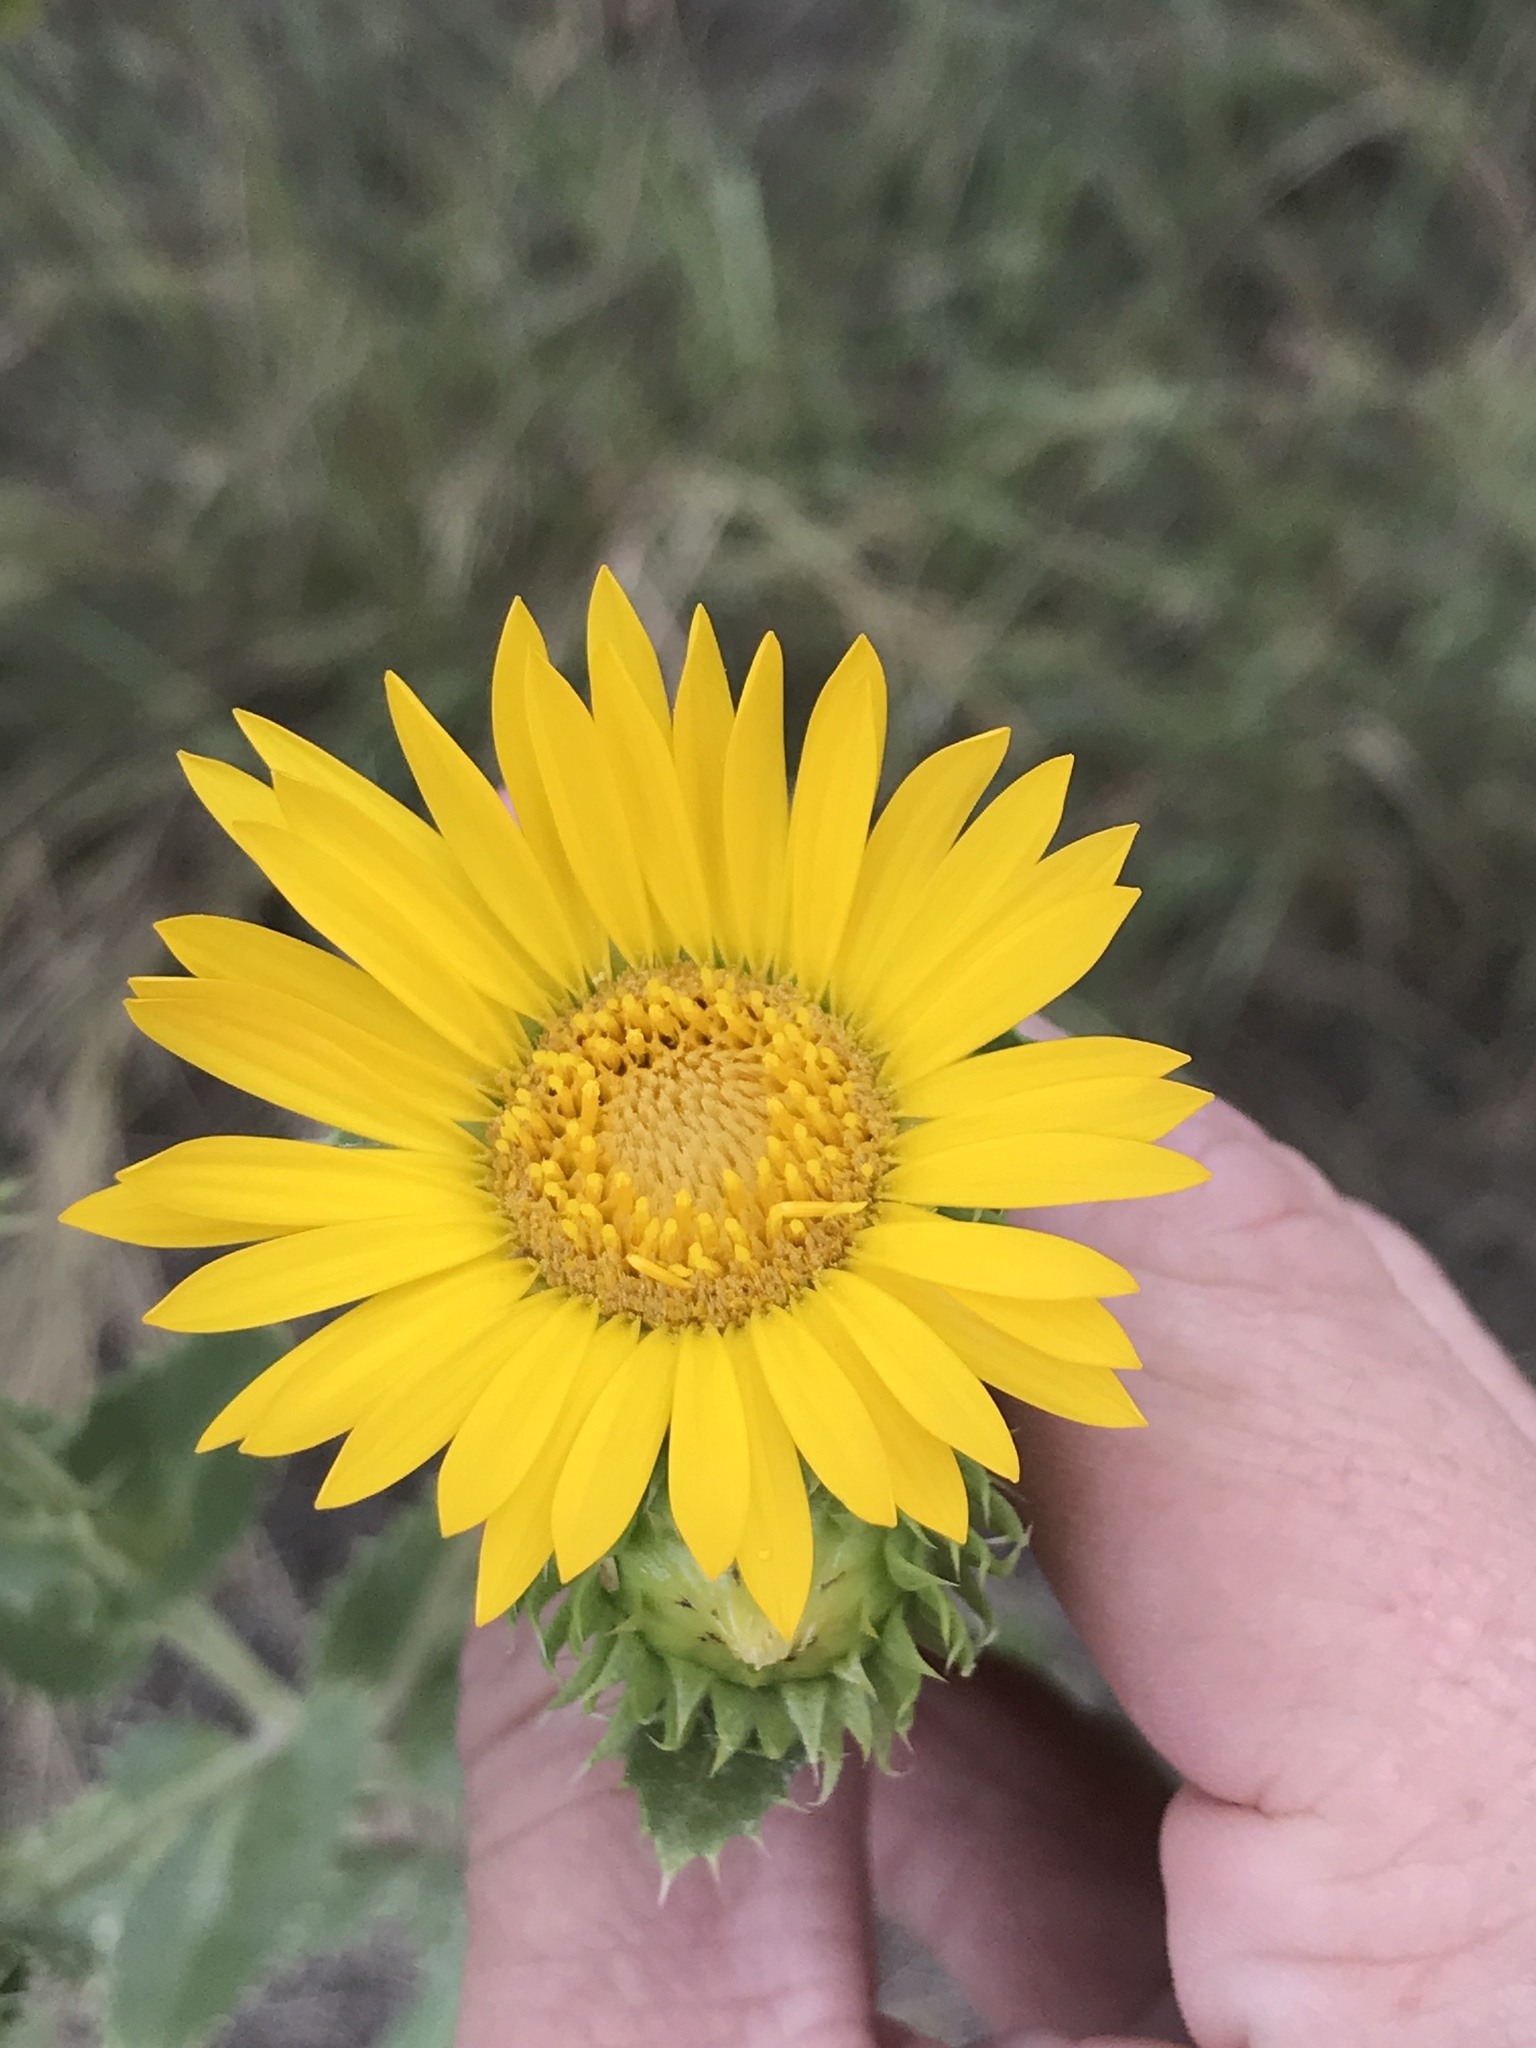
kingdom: Plantae
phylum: Tracheophyta
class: Magnoliopsida
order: Asterales
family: Asteraceae
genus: Grindelia
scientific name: Grindelia ciliata
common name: Goldenweed
